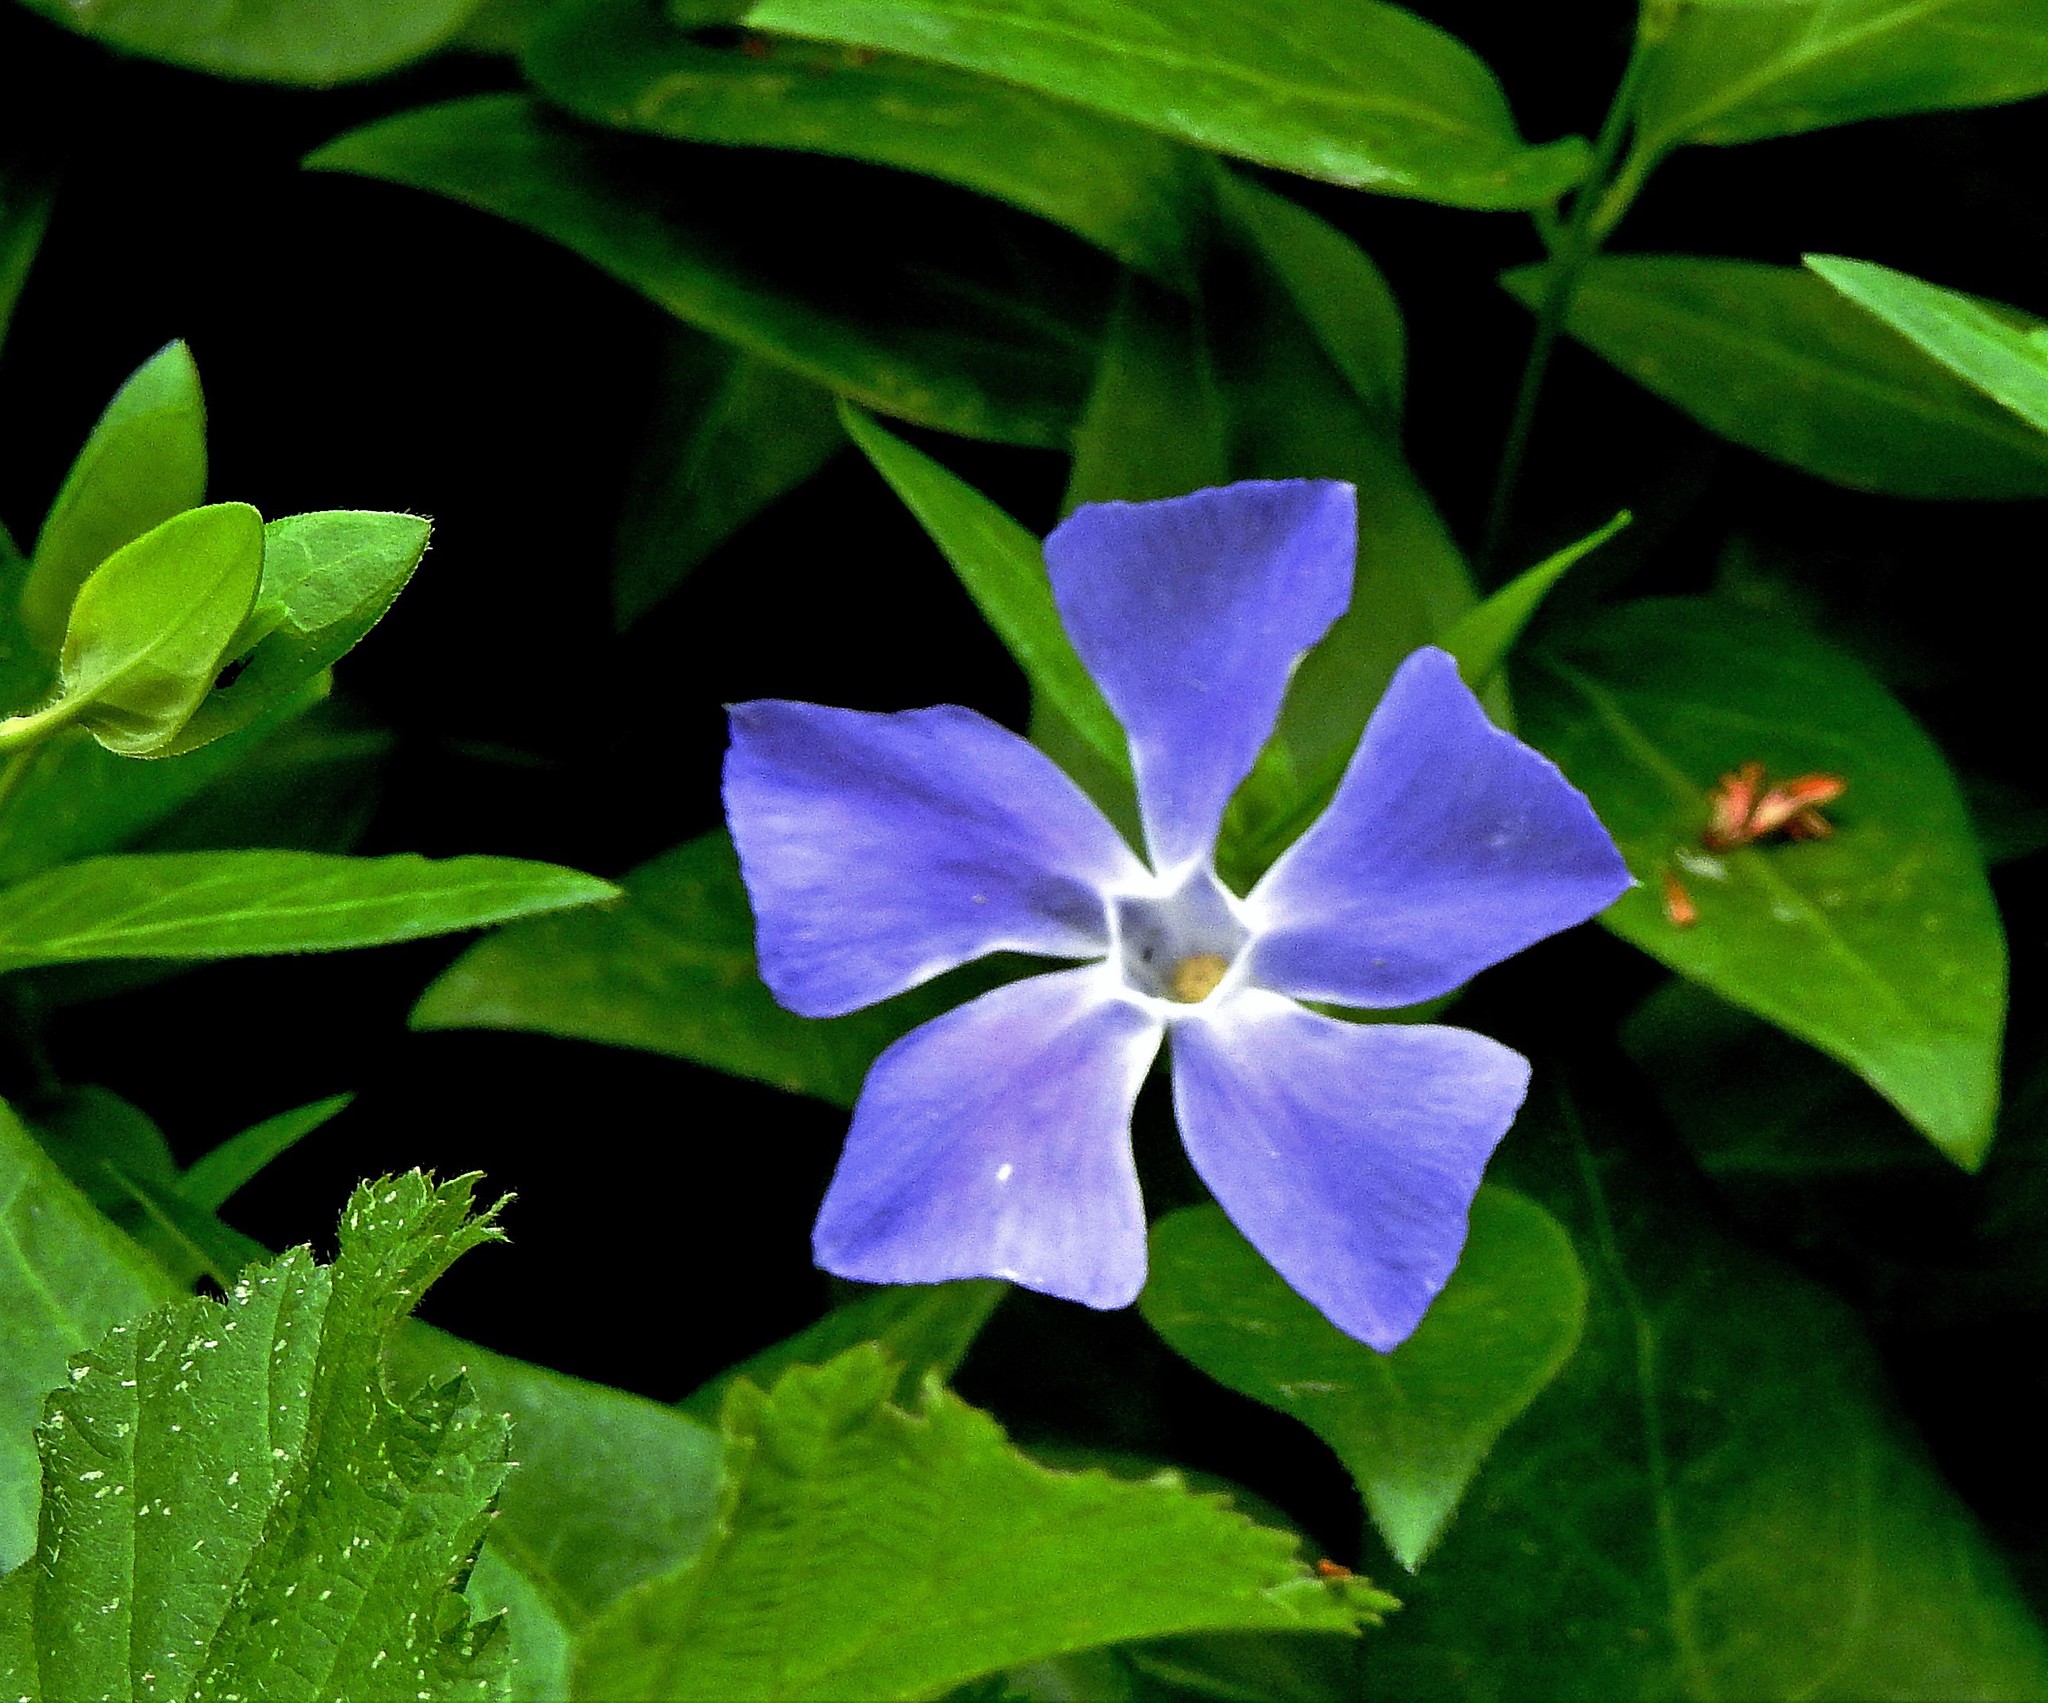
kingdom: Plantae
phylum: Tracheophyta
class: Magnoliopsida
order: Gentianales
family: Apocynaceae
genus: Vinca
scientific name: Vinca major
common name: Greater periwinkle
